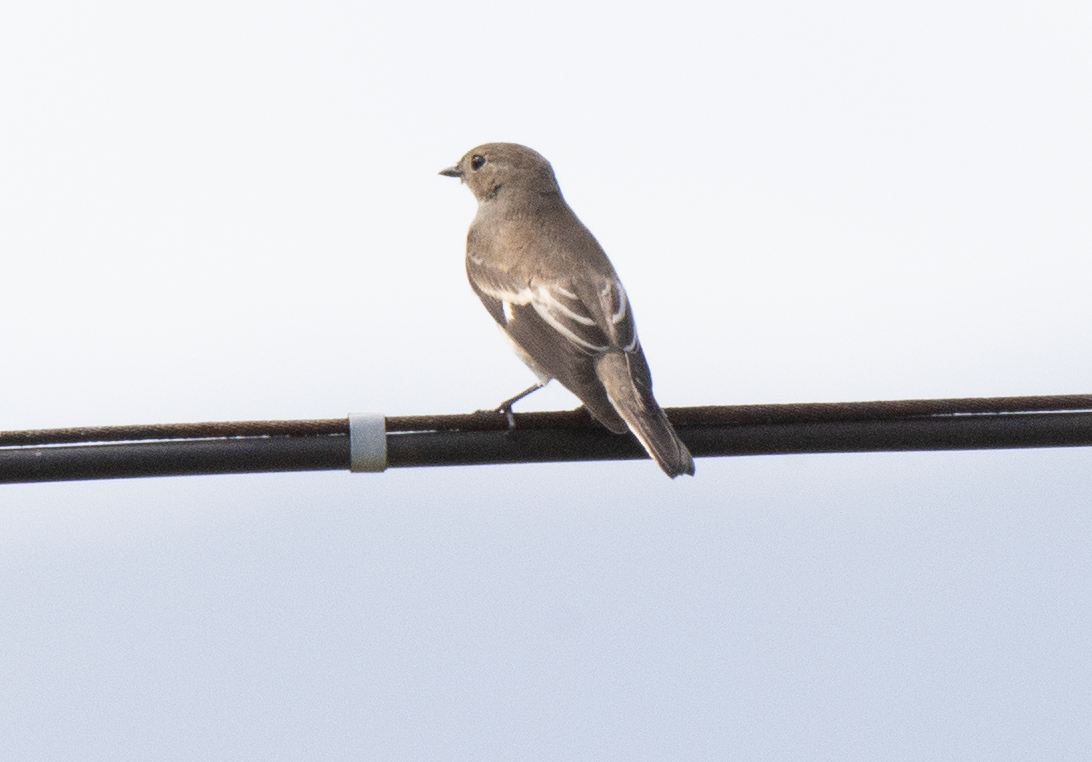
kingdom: Animalia
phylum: Chordata
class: Aves
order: Passeriformes
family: Muscicapidae
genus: Ficedula
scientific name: Ficedula hypoleuca
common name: European pied flycatcher
